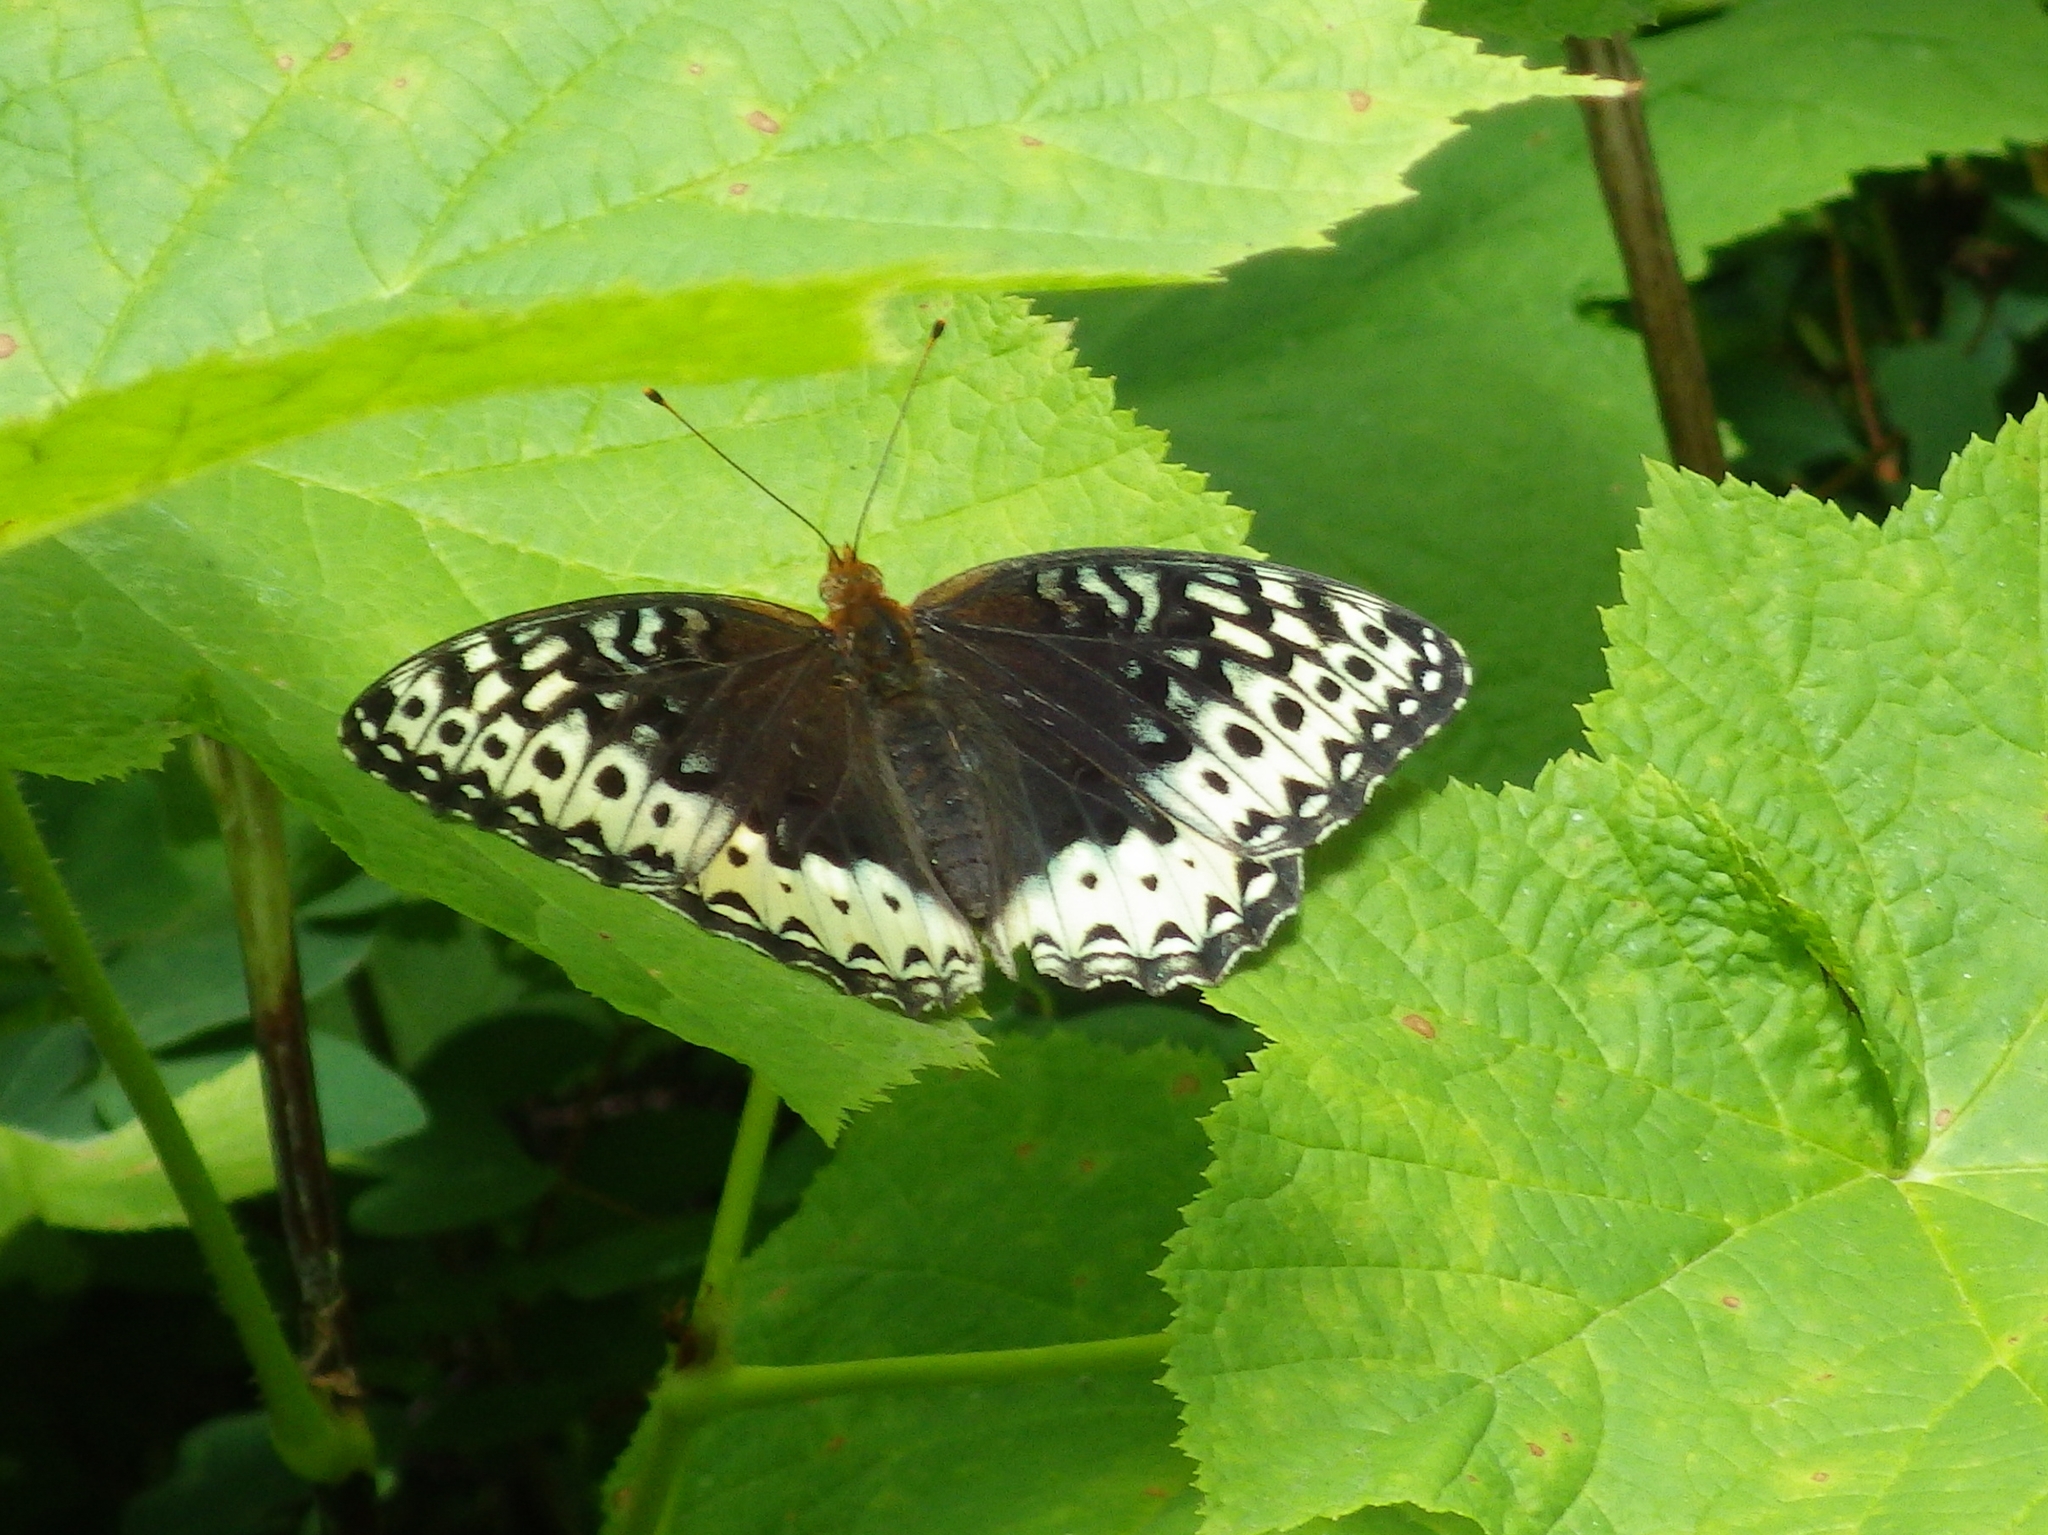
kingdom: Animalia
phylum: Arthropoda
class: Insecta
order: Lepidoptera
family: Nymphalidae
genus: Speyeria
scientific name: Speyeria cybele
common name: Great spangled fritillary
